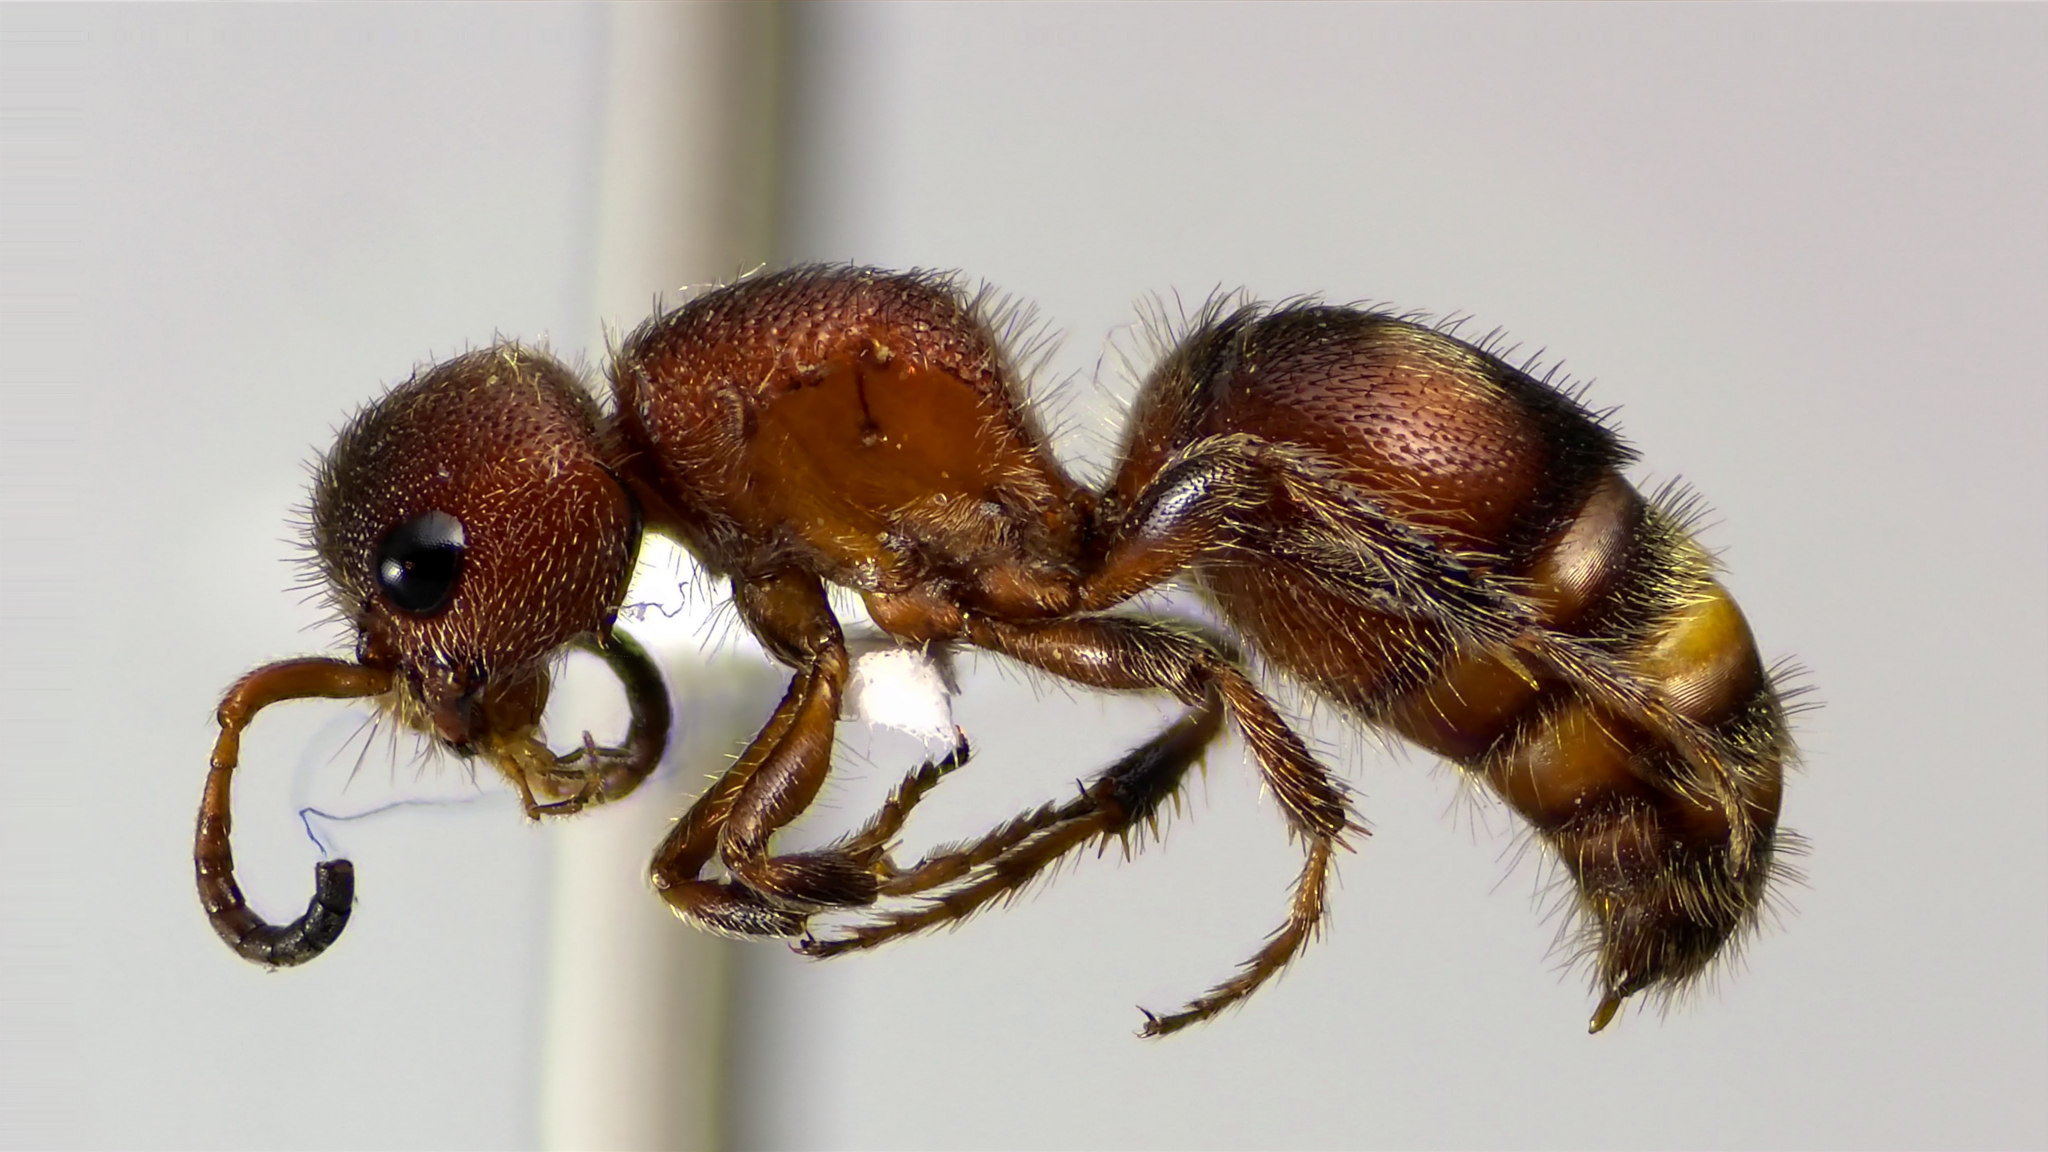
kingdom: Animalia
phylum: Arthropoda
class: Insecta
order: Hymenoptera
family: Mutillidae
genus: Pseudomethoca
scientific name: Pseudomethoca
